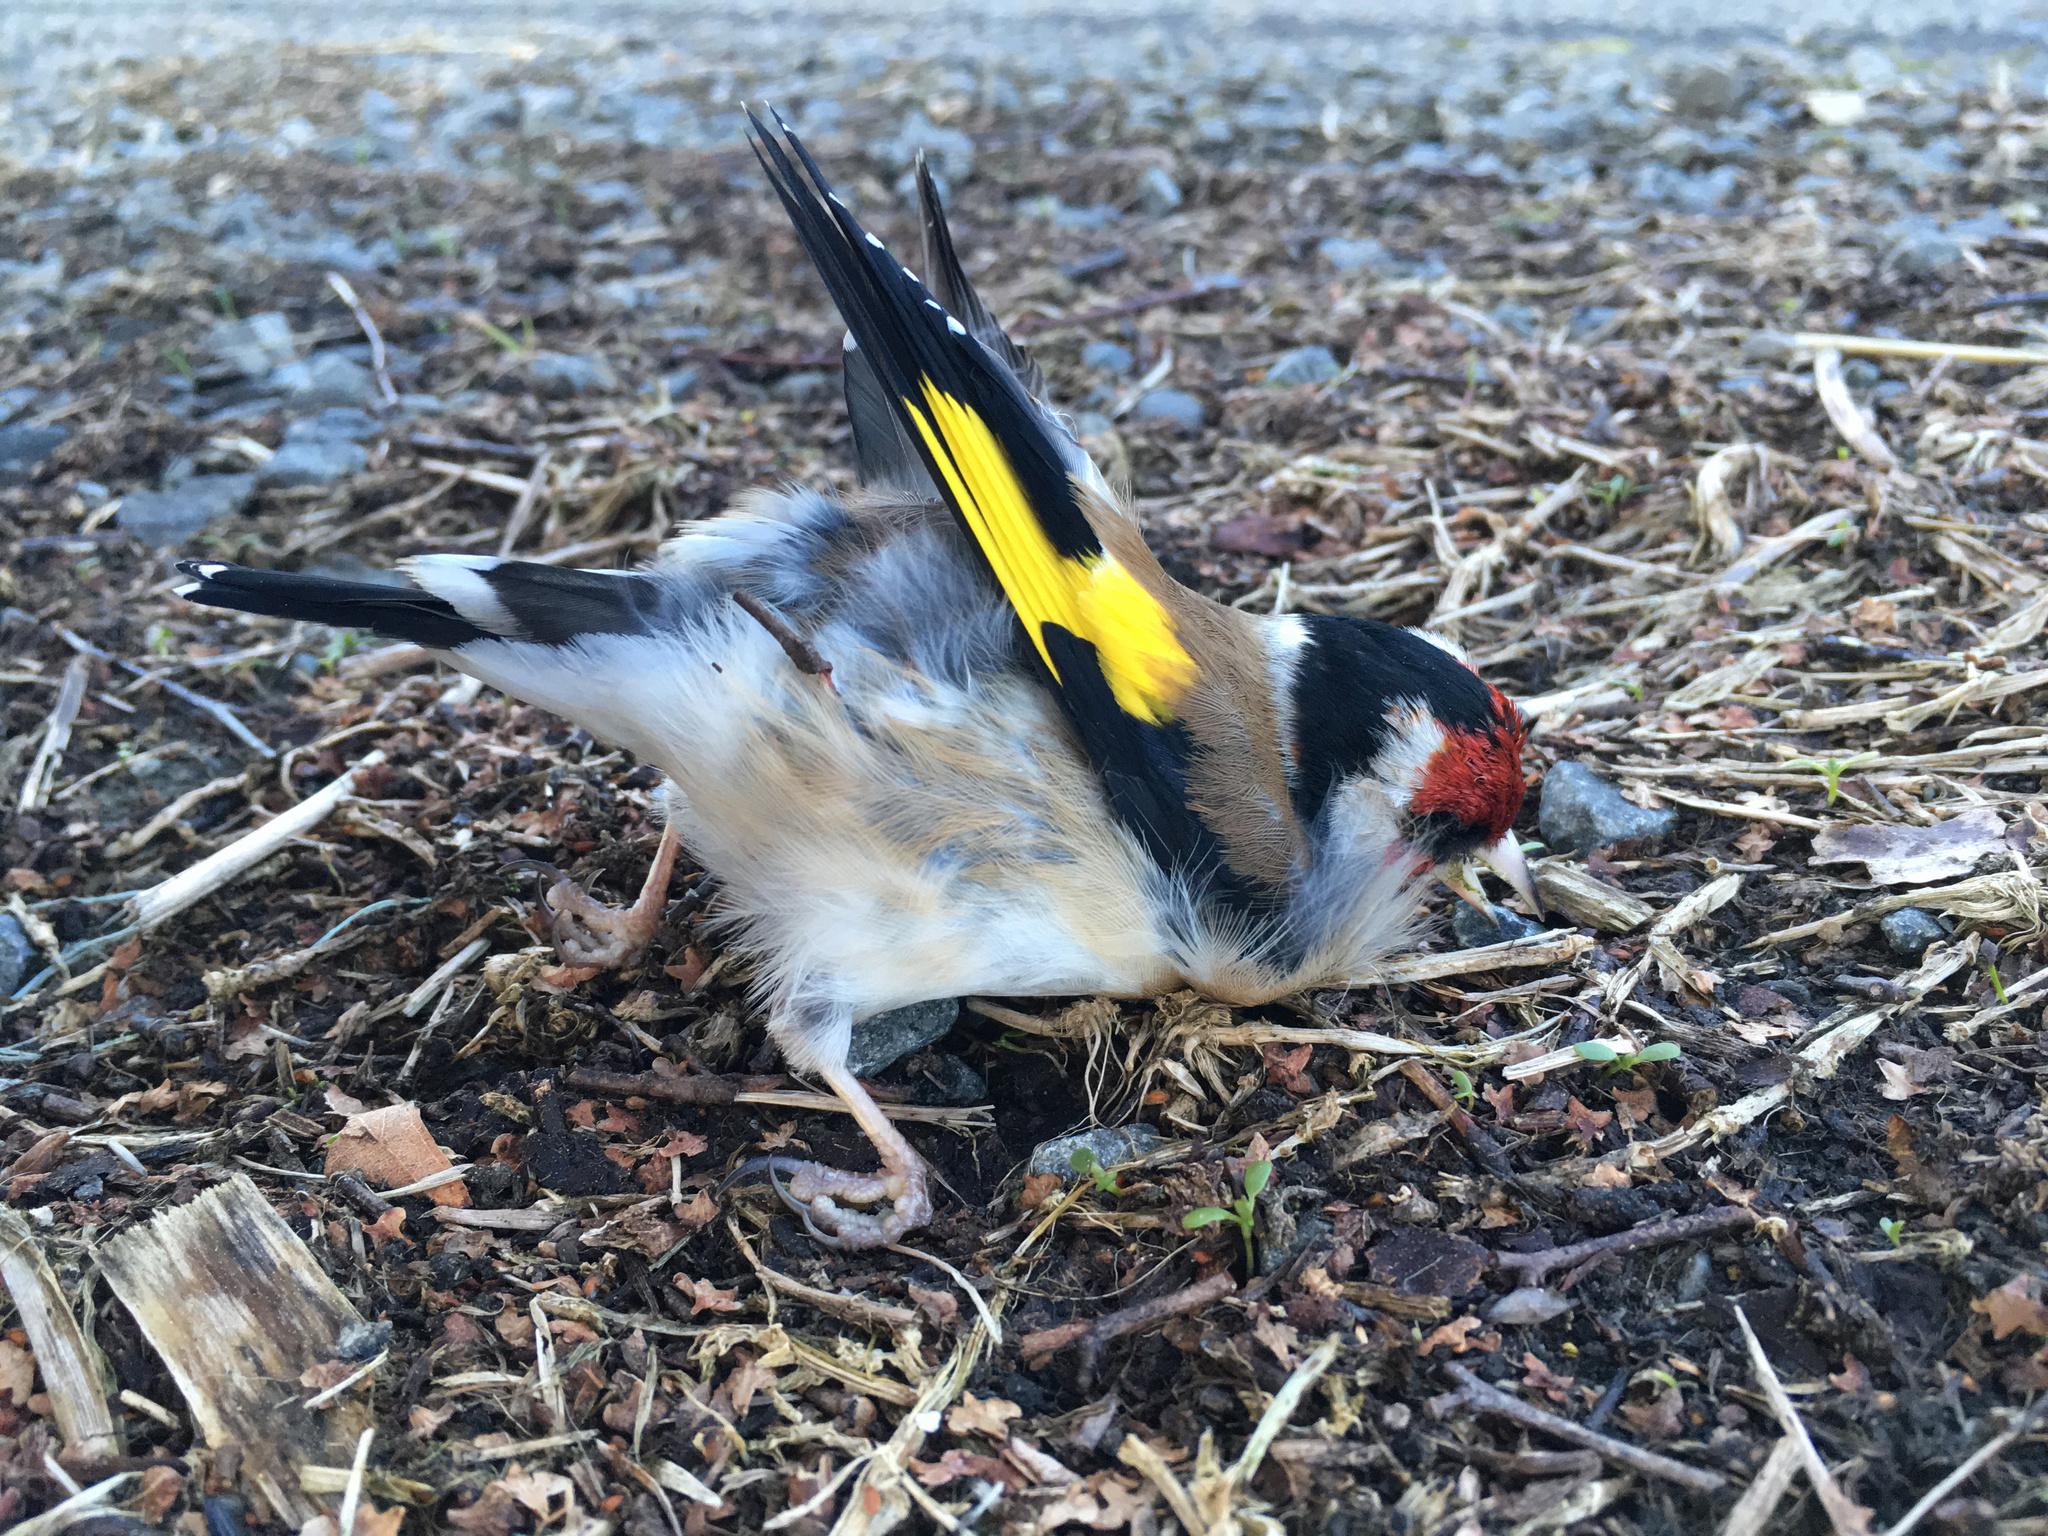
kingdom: Animalia
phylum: Chordata
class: Aves
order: Passeriformes
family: Fringillidae
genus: Carduelis
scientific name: Carduelis carduelis
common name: European goldfinch
